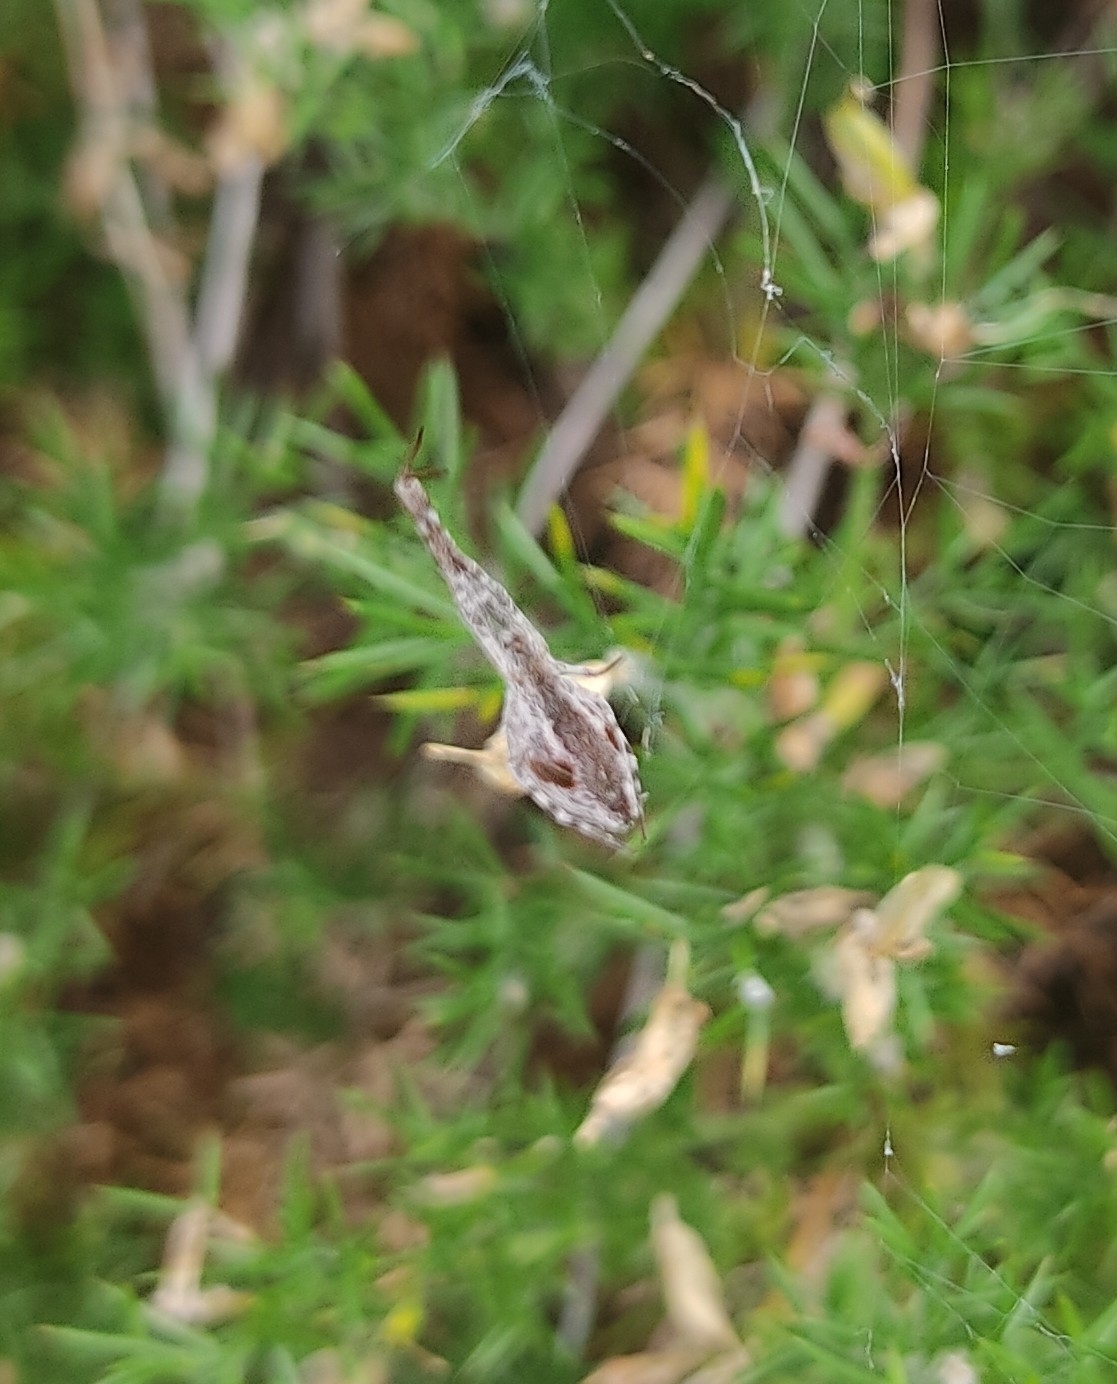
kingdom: Animalia
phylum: Arthropoda
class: Arachnida
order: Araneae
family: Uloboridae
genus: Uloborus
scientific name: Uloborus walckenaerius
